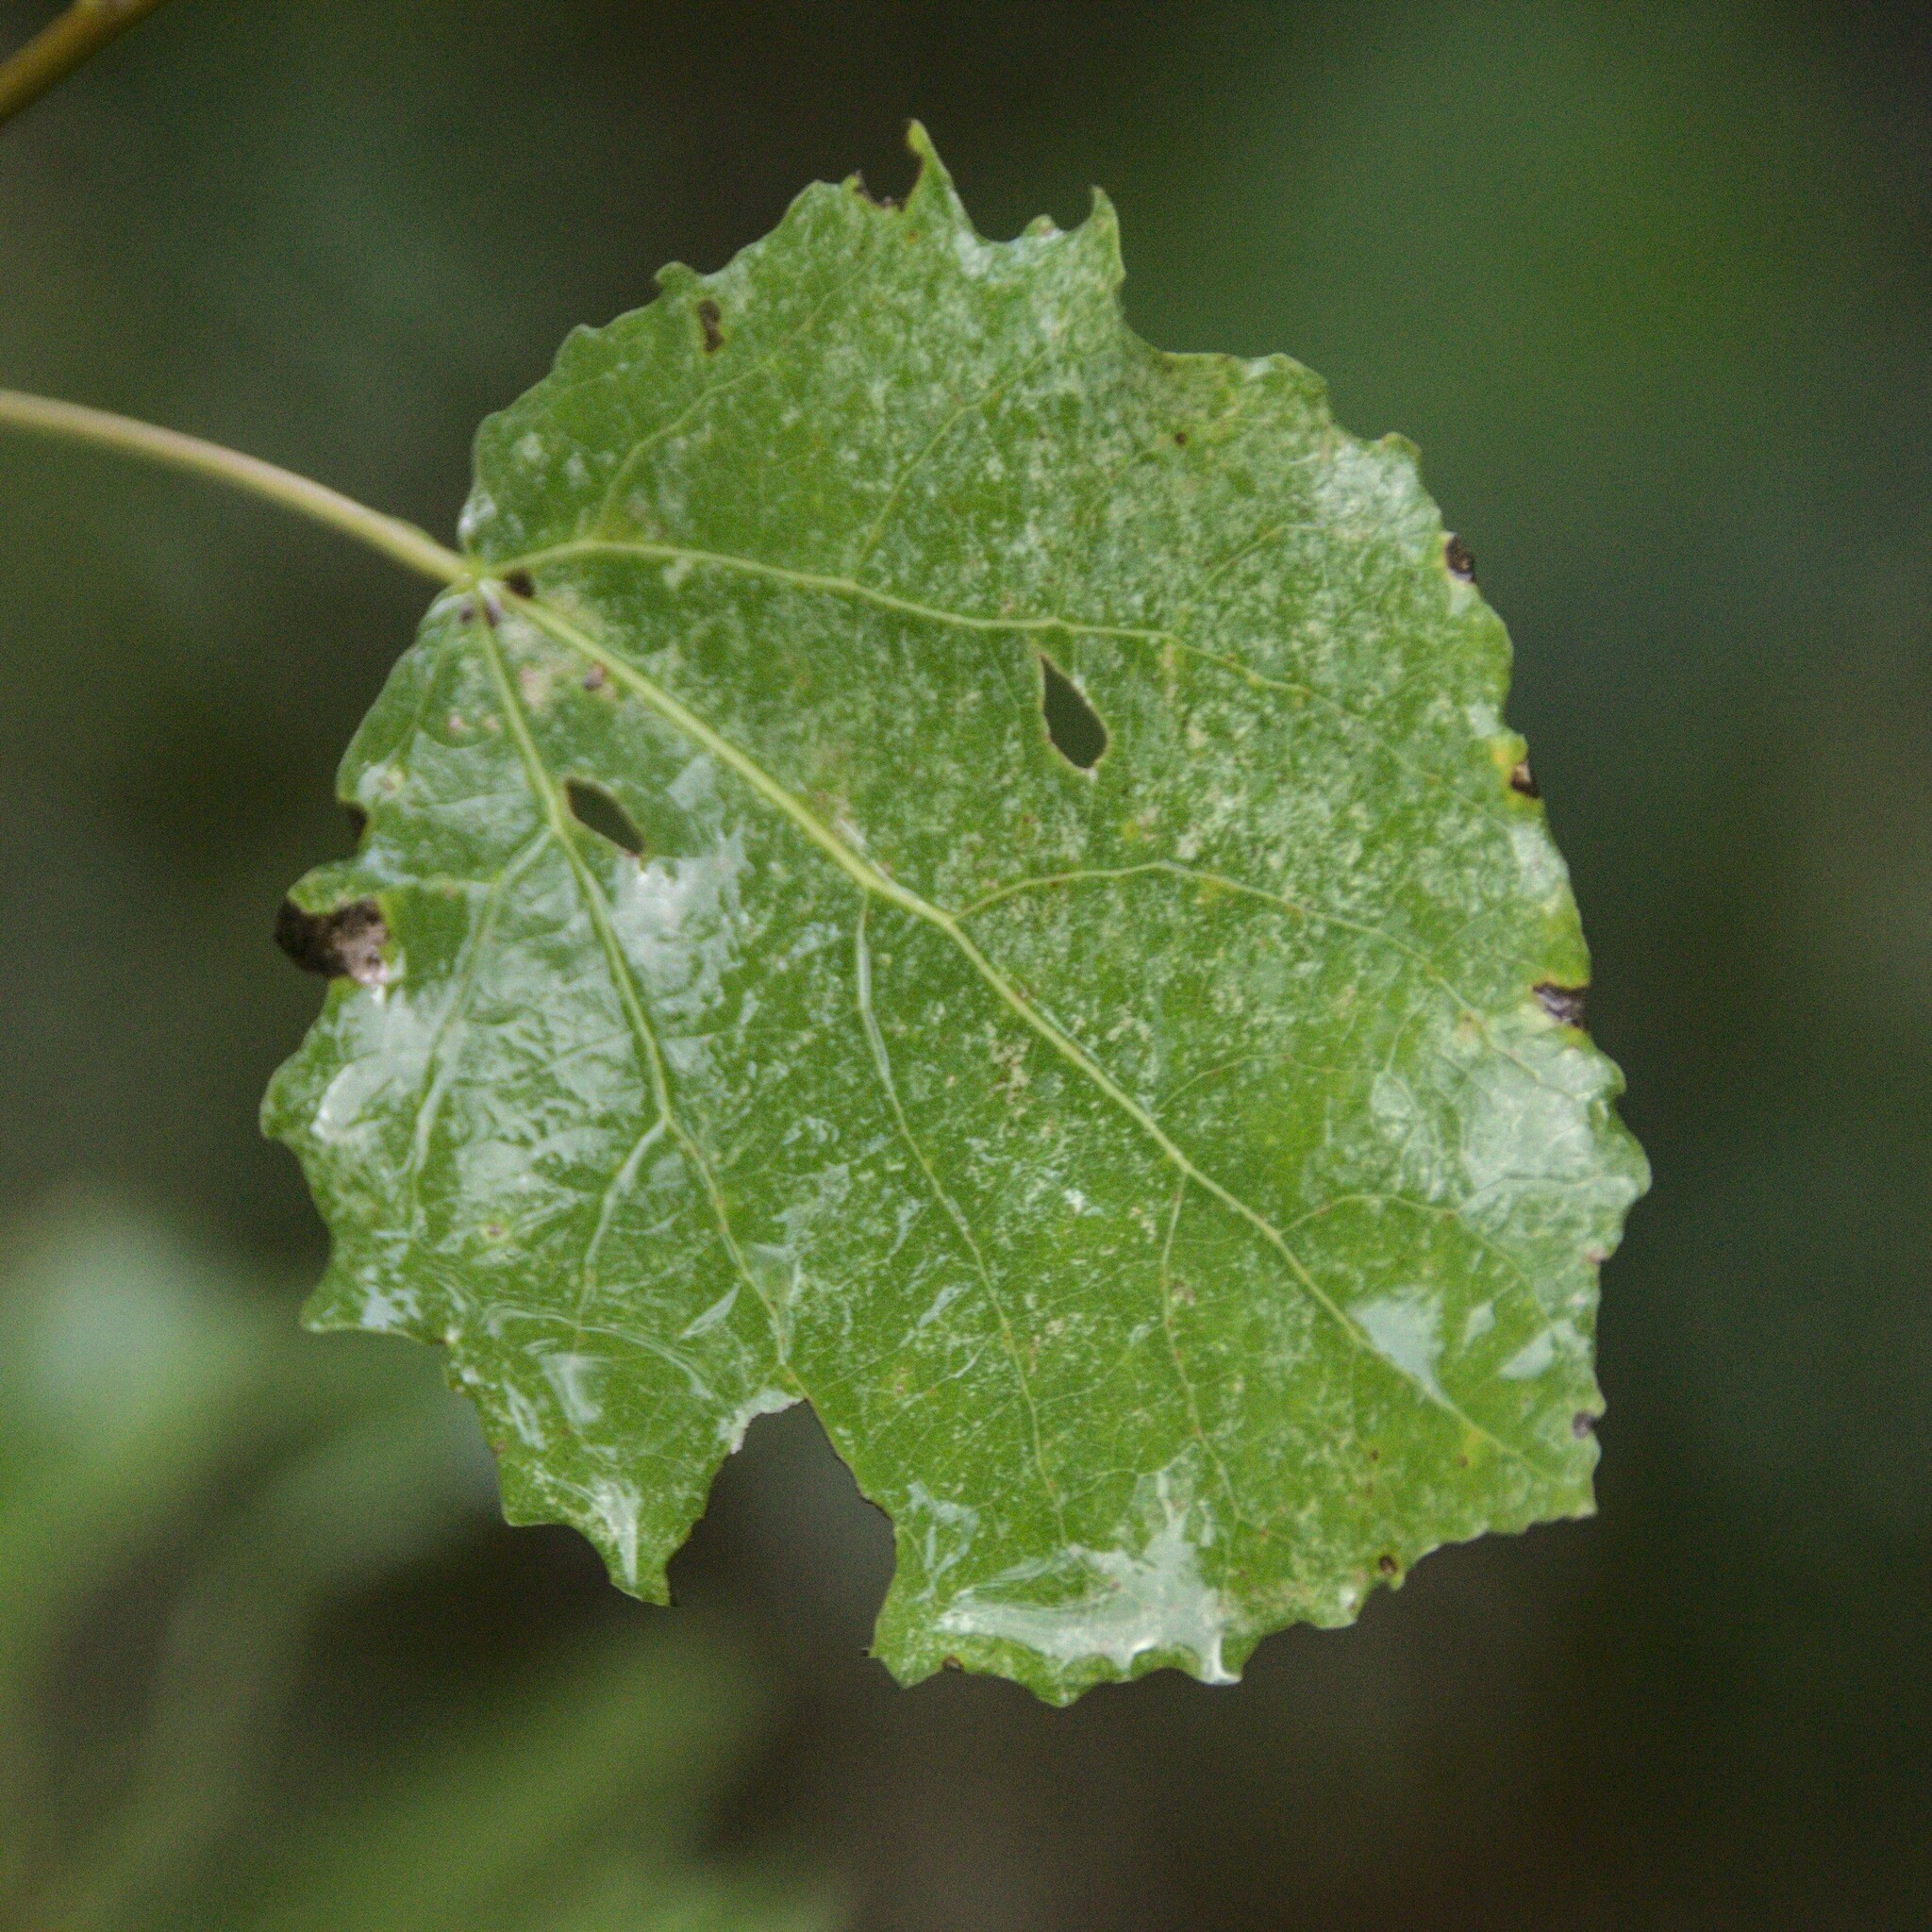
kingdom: Plantae
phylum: Tracheophyta
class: Magnoliopsida
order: Malpighiales
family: Salicaceae
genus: Populus
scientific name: Populus tremula
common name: European aspen
